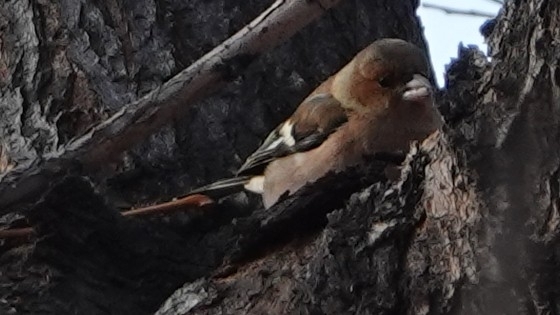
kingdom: Animalia
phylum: Chordata
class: Aves
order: Passeriformes
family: Fringillidae
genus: Fringilla
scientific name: Fringilla coelebs
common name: Common chaffinch
